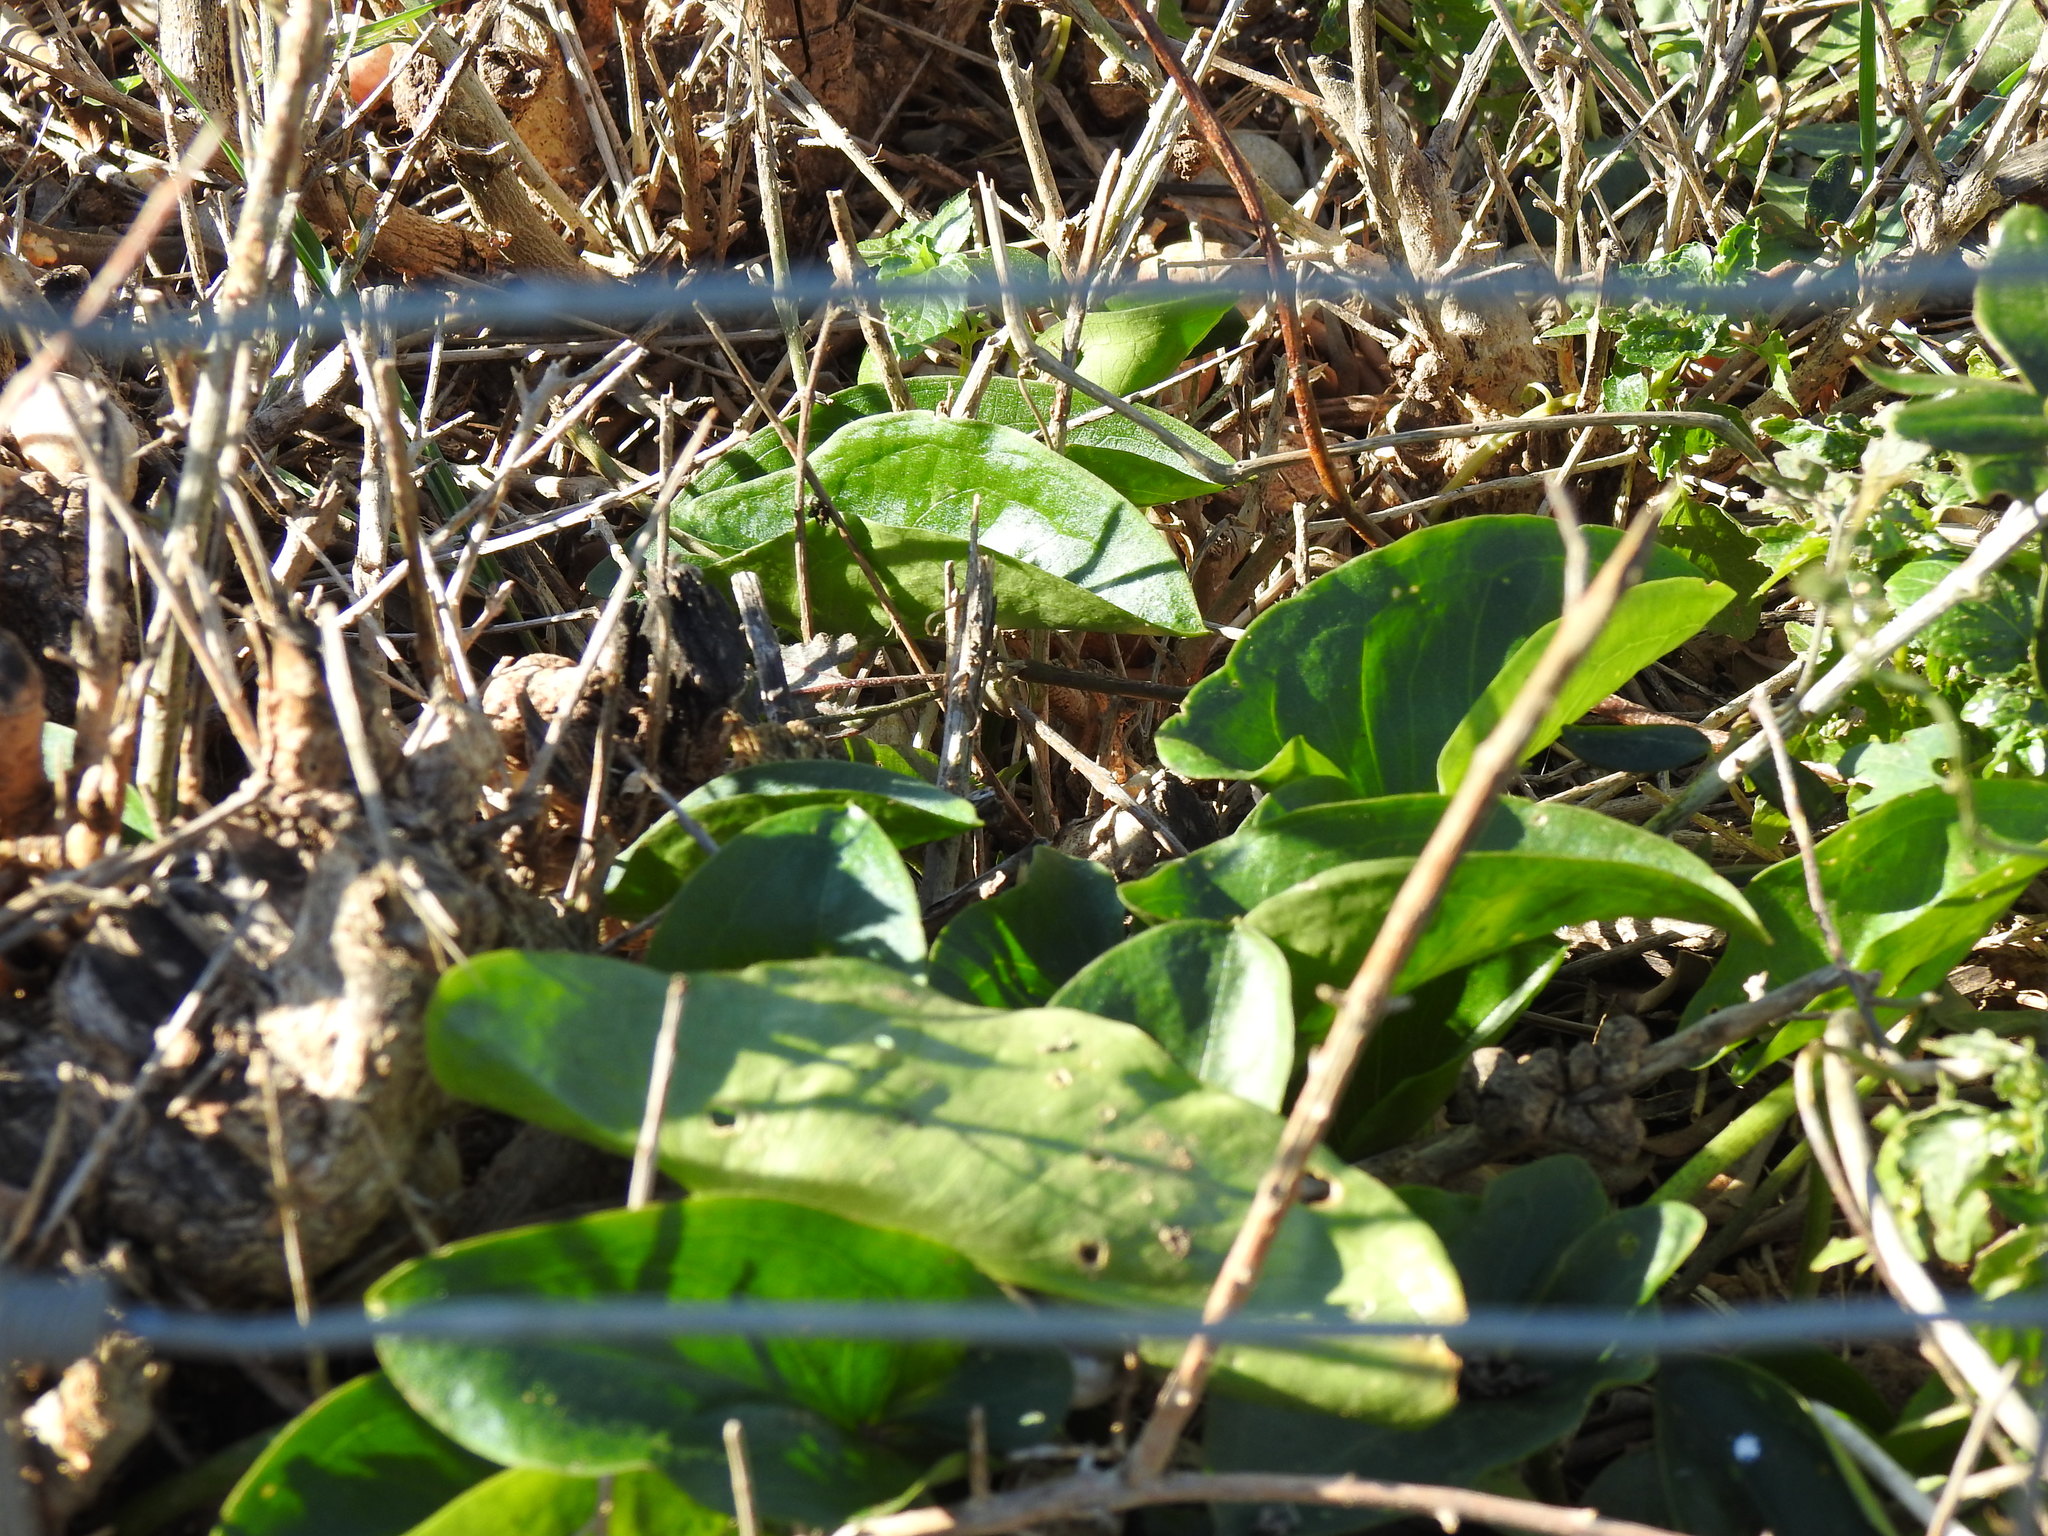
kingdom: Plantae
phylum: Tracheophyta
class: Liliopsida
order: Alismatales
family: Araceae
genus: Arisarum
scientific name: Arisarum simorrhinum
